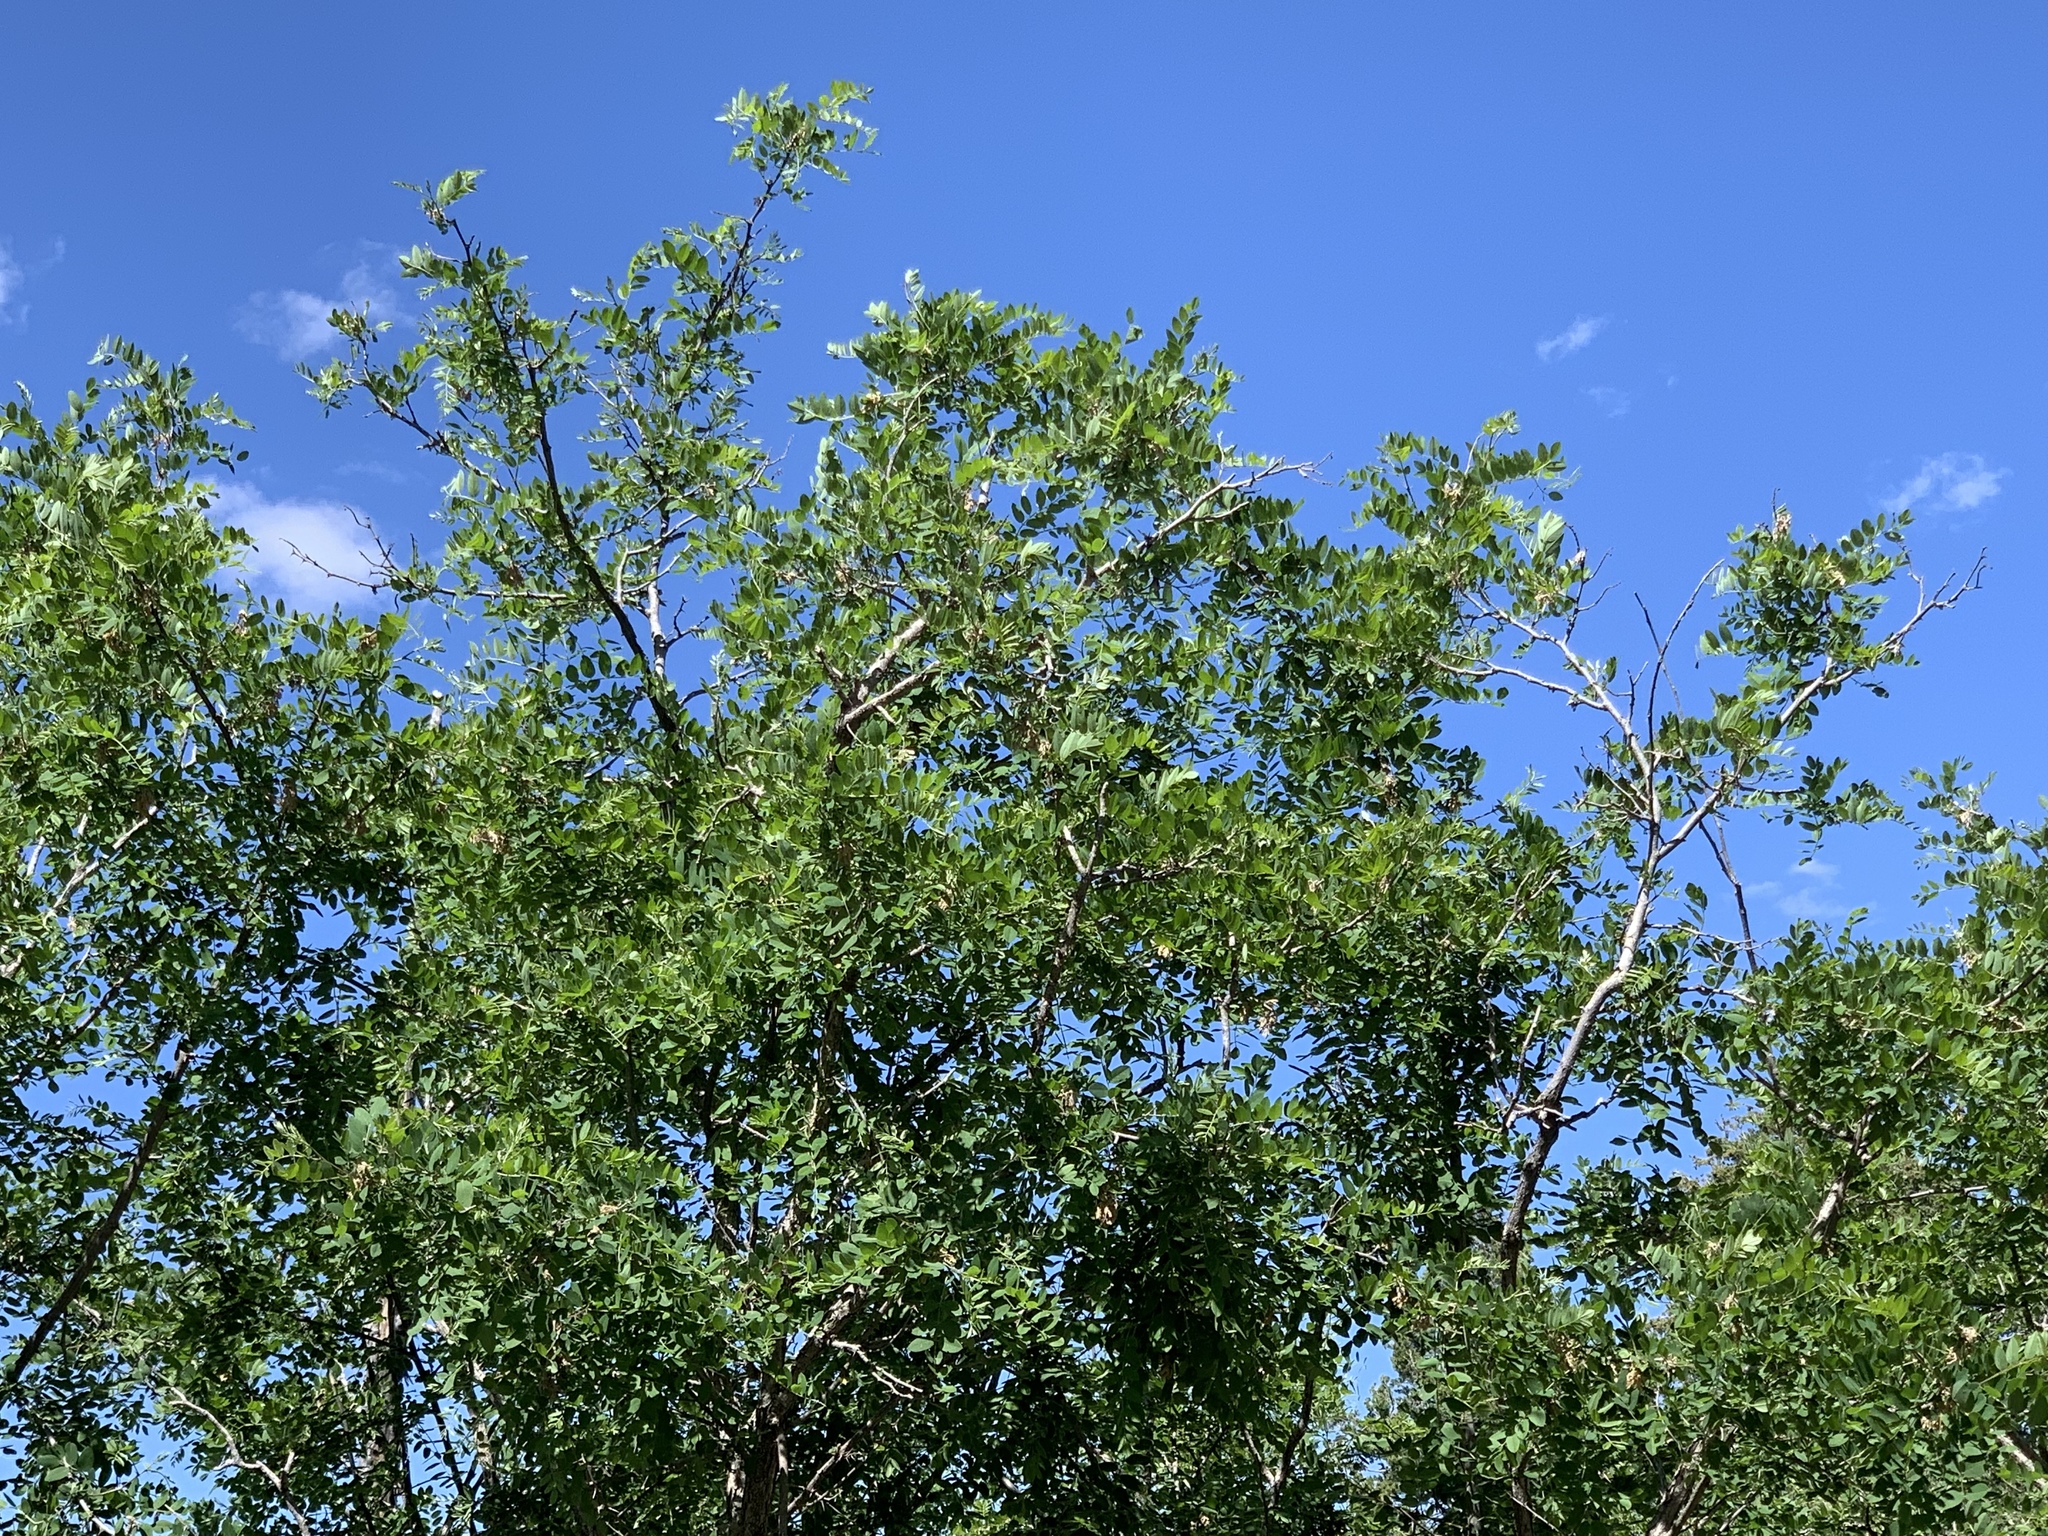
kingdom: Plantae
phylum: Tracheophyta
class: Magnoliopsida
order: Fabales
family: Fabaceae
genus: Robinia
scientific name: Robinia neomexicana
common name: New mexico locust
